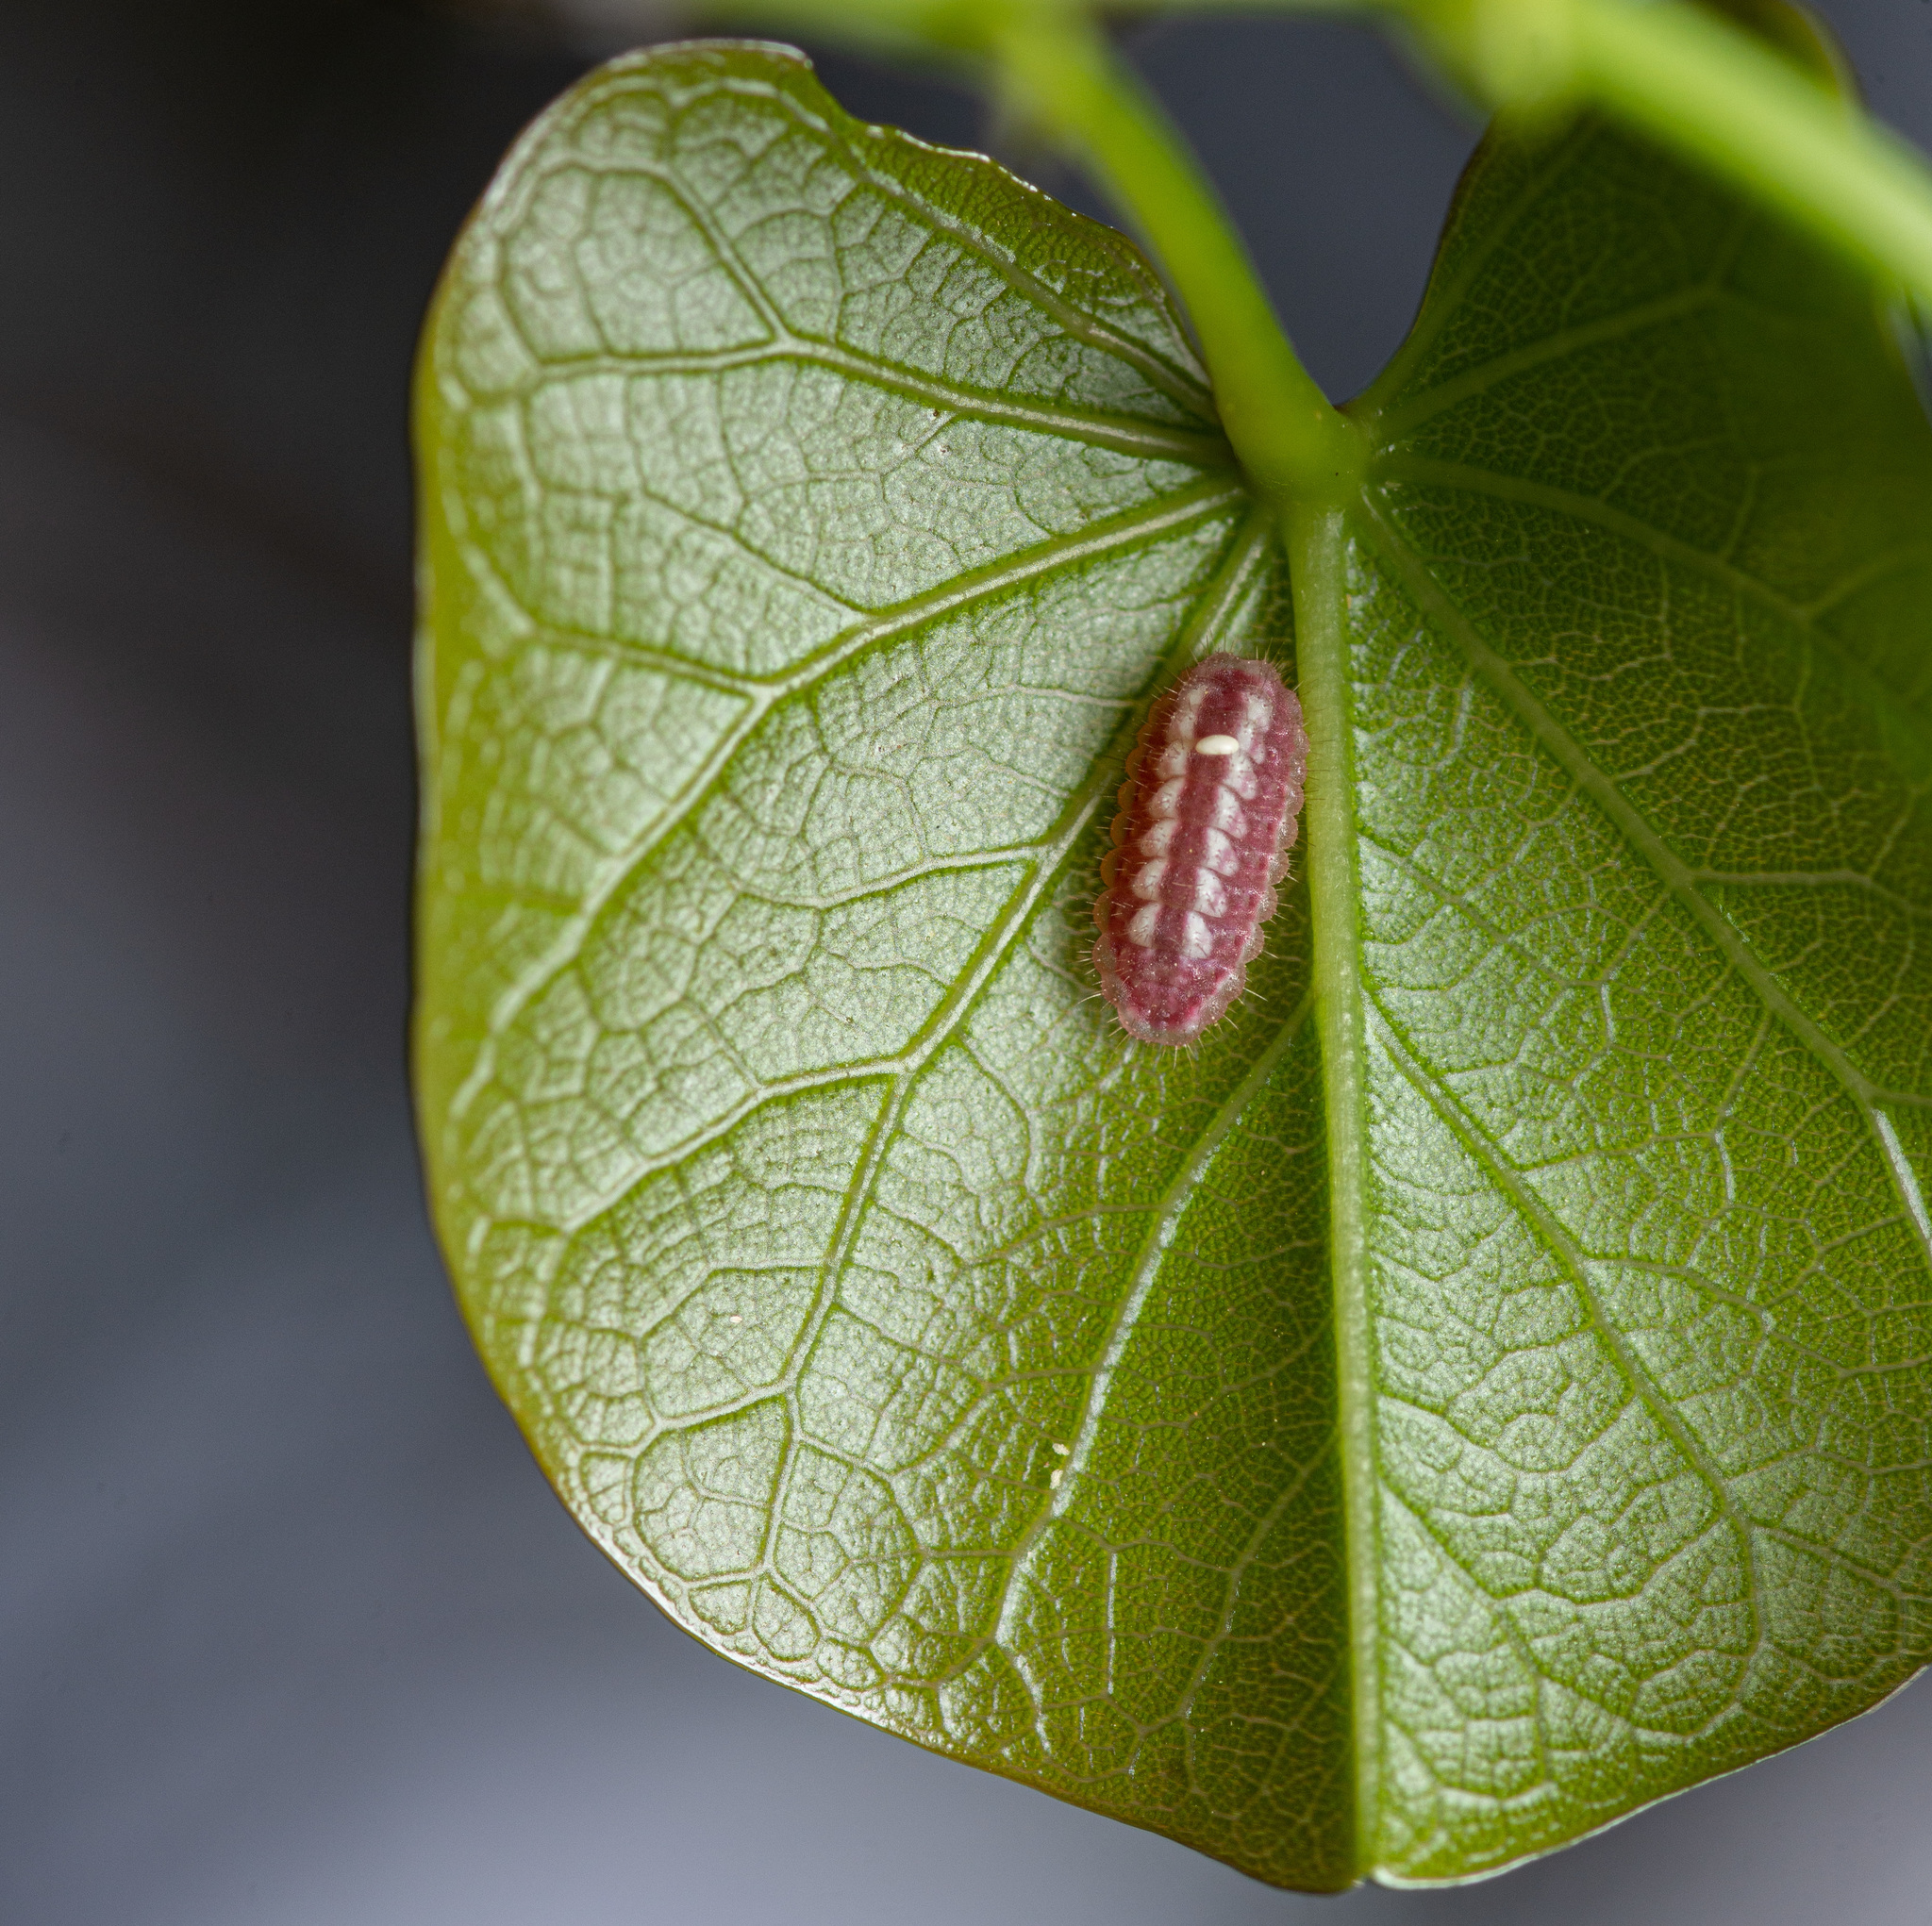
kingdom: Animalia
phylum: Arthropoda
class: Insecta
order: Lepidoptera
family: Lycaenidae
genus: Incisalia
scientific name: Incisalia henrici
